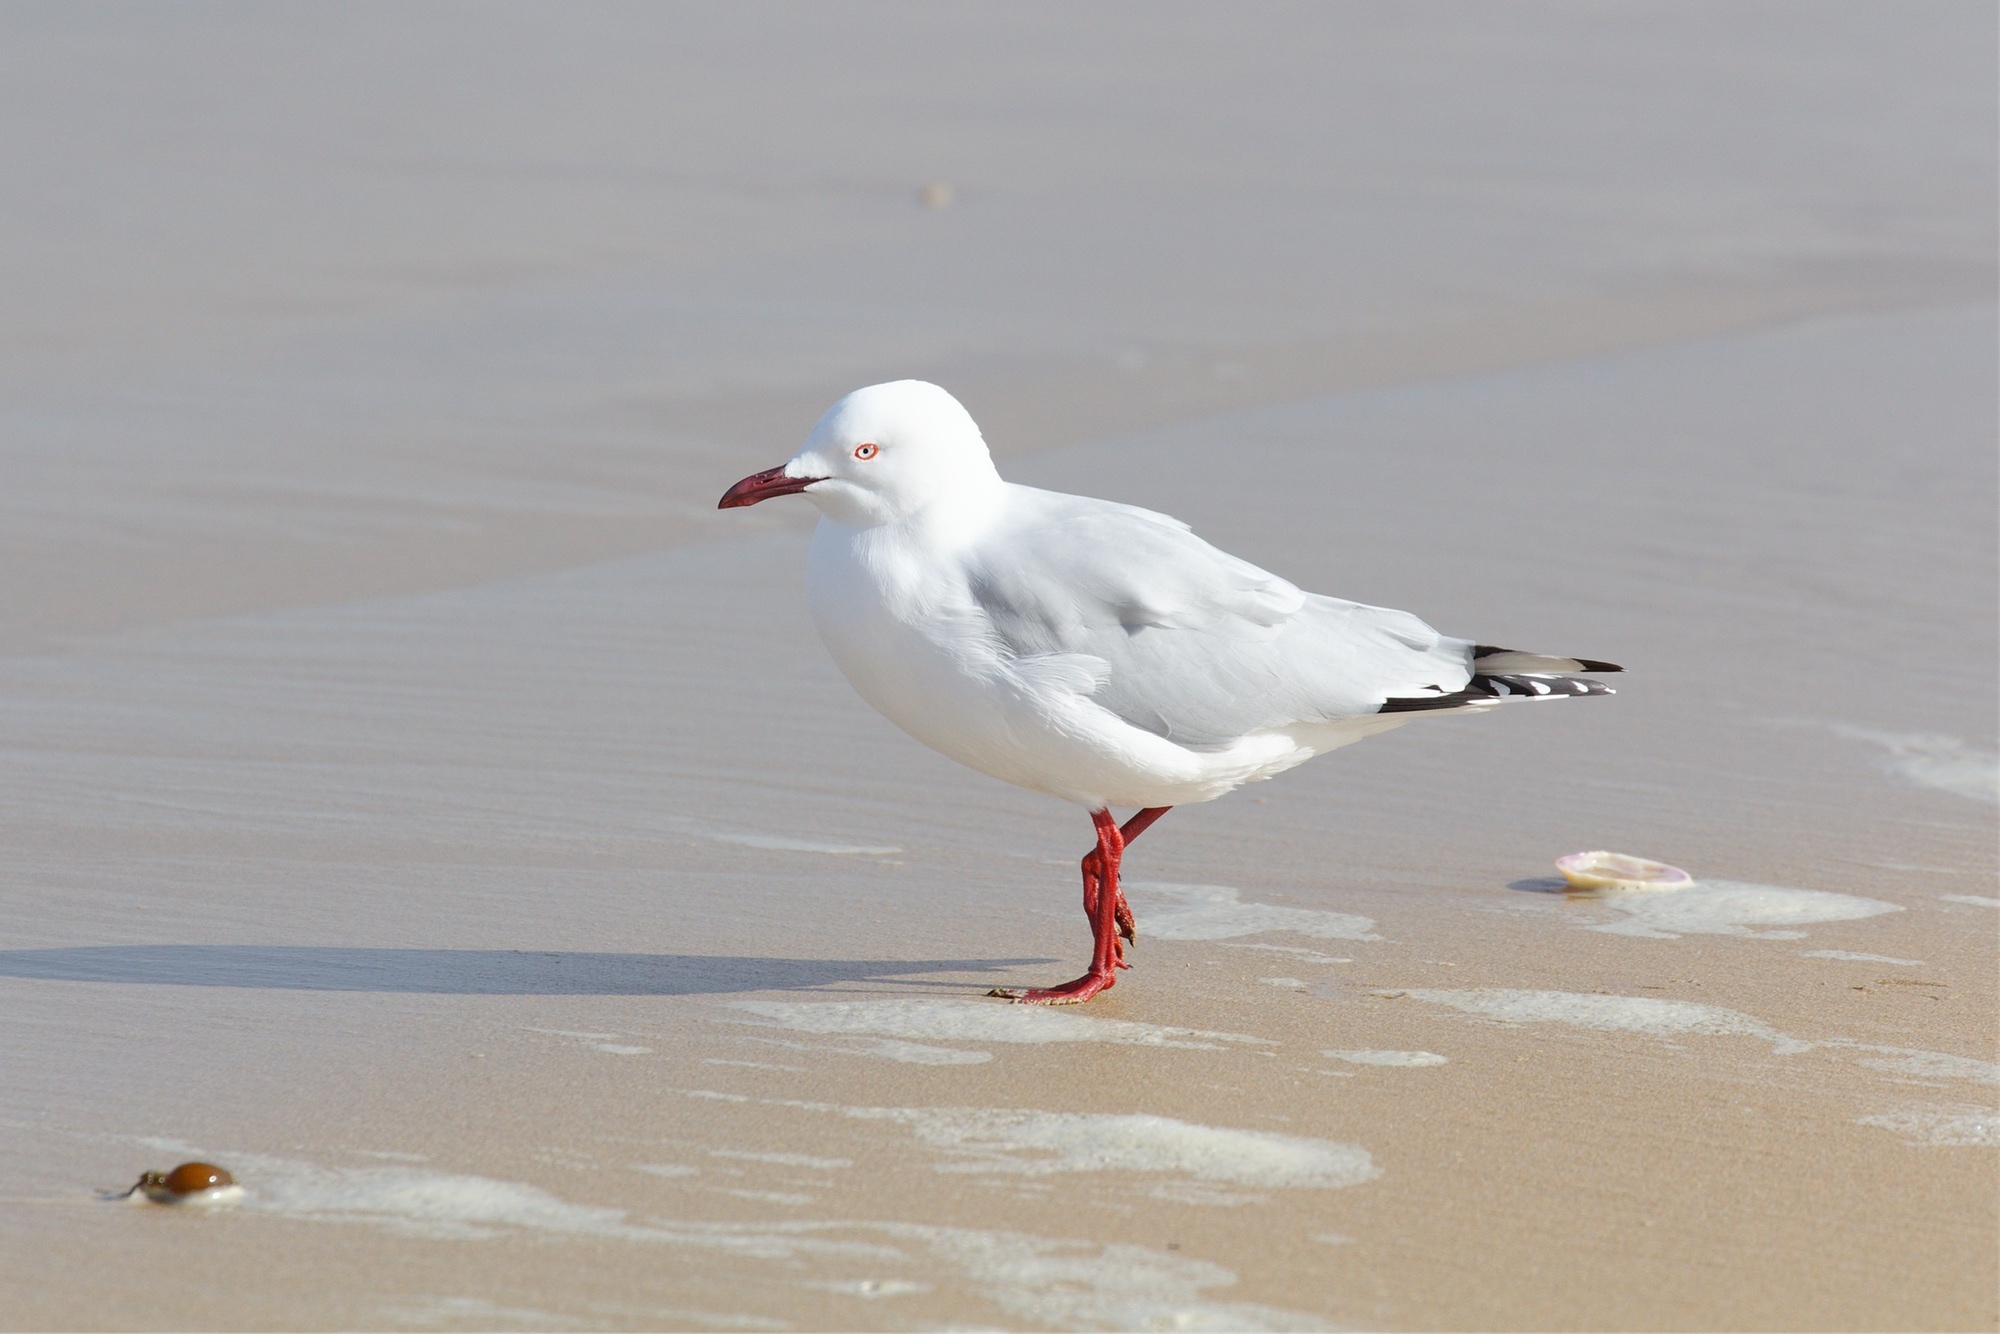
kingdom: Animalia
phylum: Chordata
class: Aves
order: Charadriiformes
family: Laridae
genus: Chroicocephalus
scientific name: Chroicocephalus novaehollandiae
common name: Silver gull
